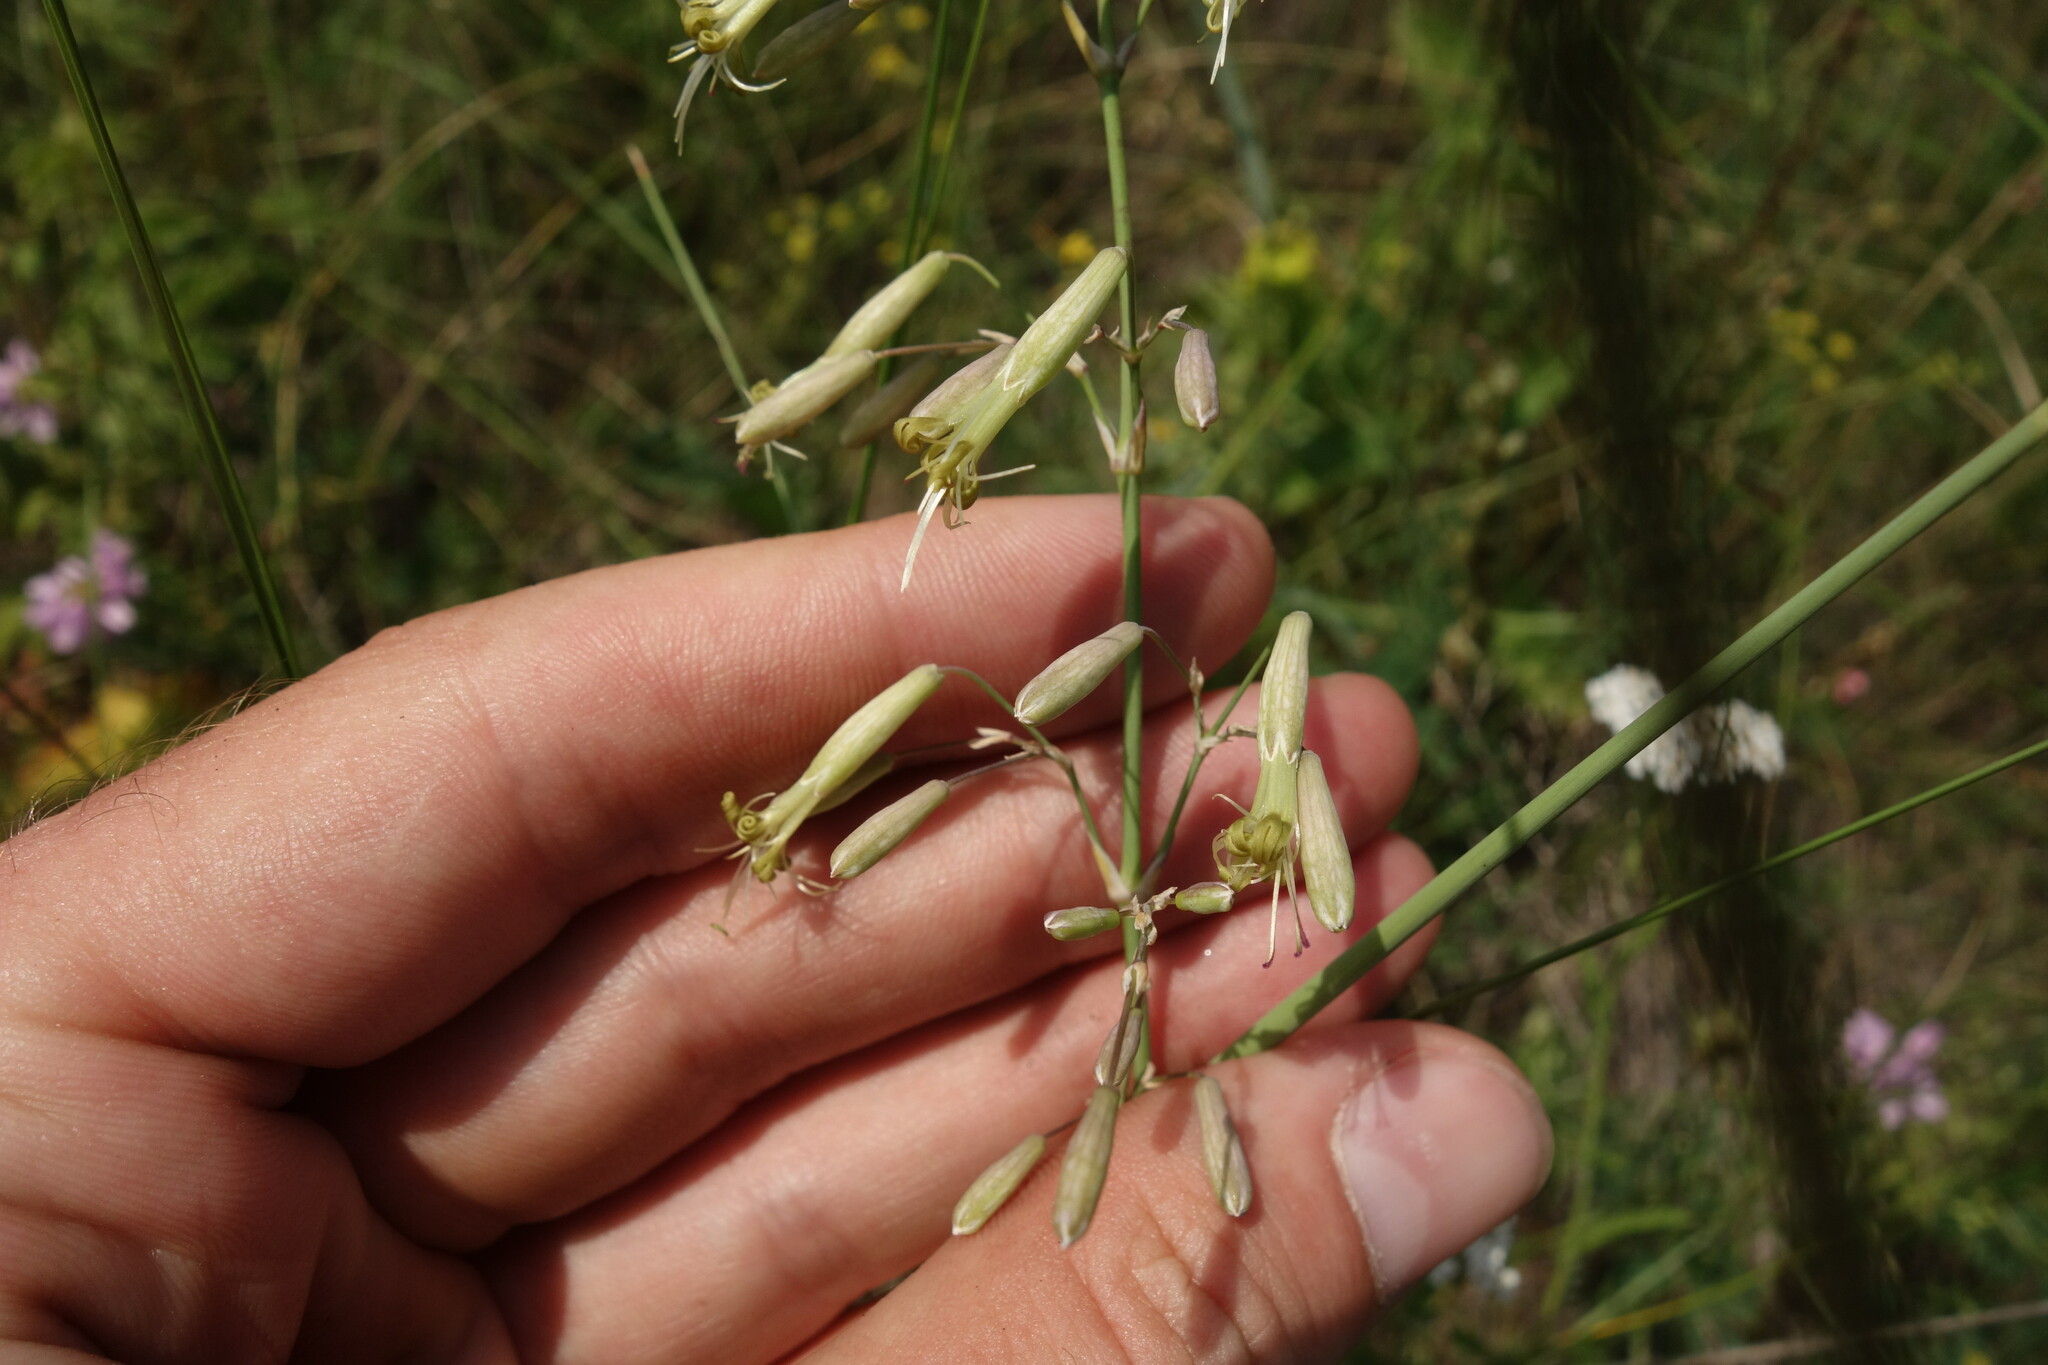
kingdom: Plantae
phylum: Tracheophyta
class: Magnoliopsida
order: Caryophyllales
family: Caryophyllaceae
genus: Silene
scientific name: Silene chlorantha
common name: Yellowgreen catchfly
